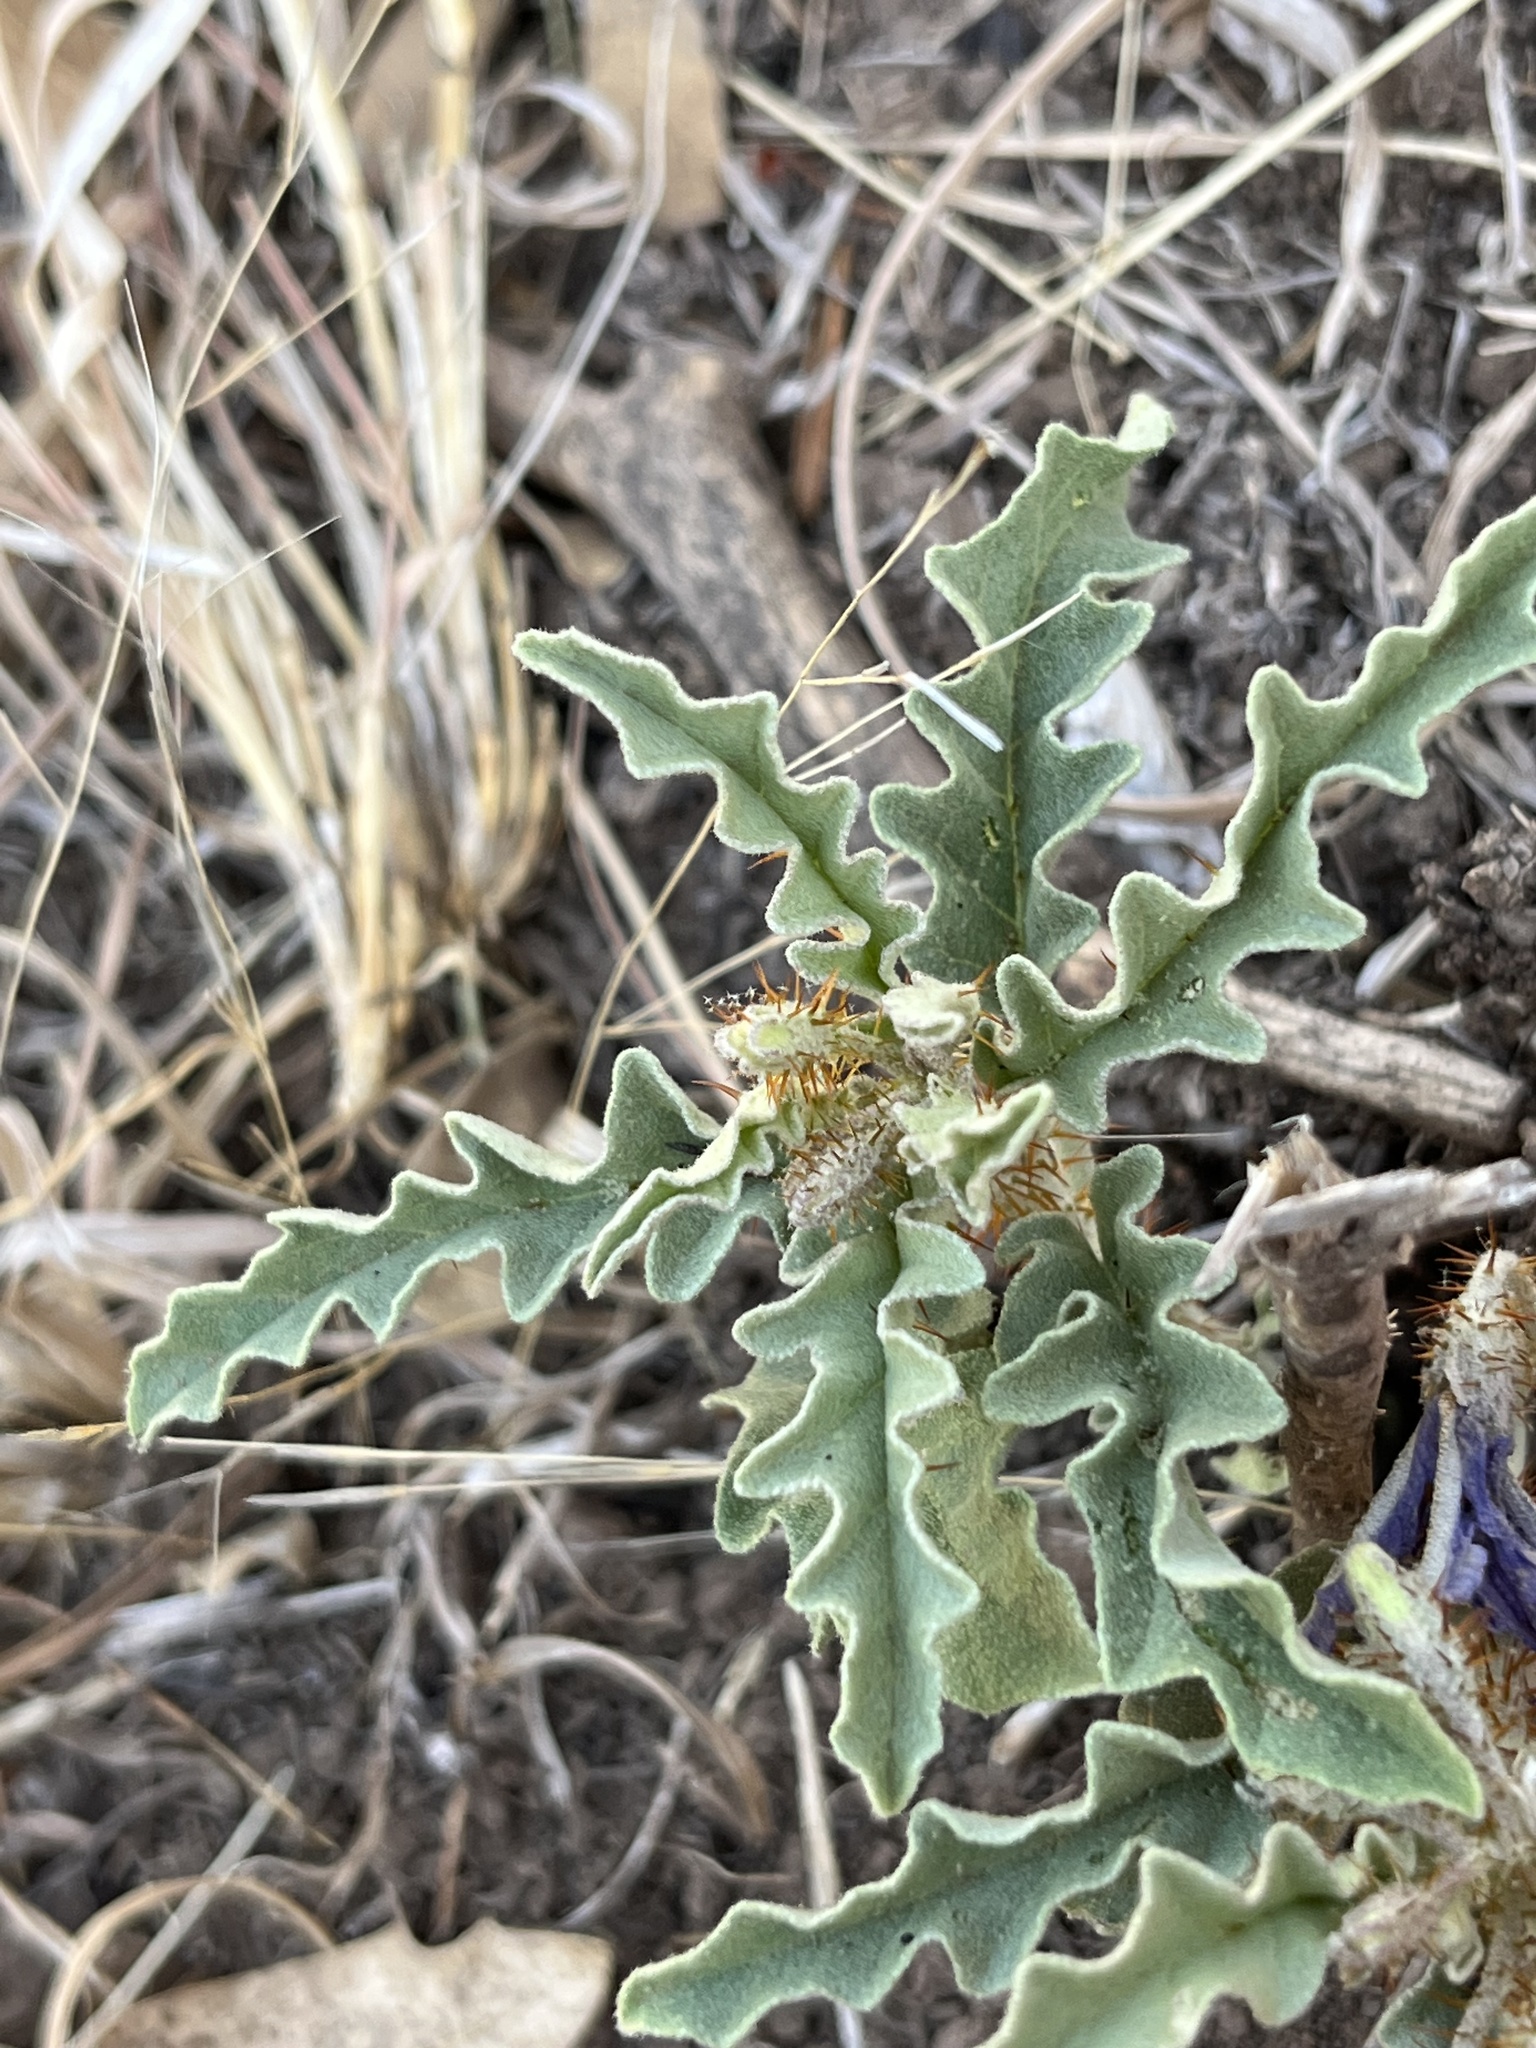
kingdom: Plantae
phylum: Tracheophyta
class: Magnoliopsida
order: Solanales
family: Solanaceae
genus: Solanum
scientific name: Solanum elaeagnifolium
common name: Silverleaf nightshade
